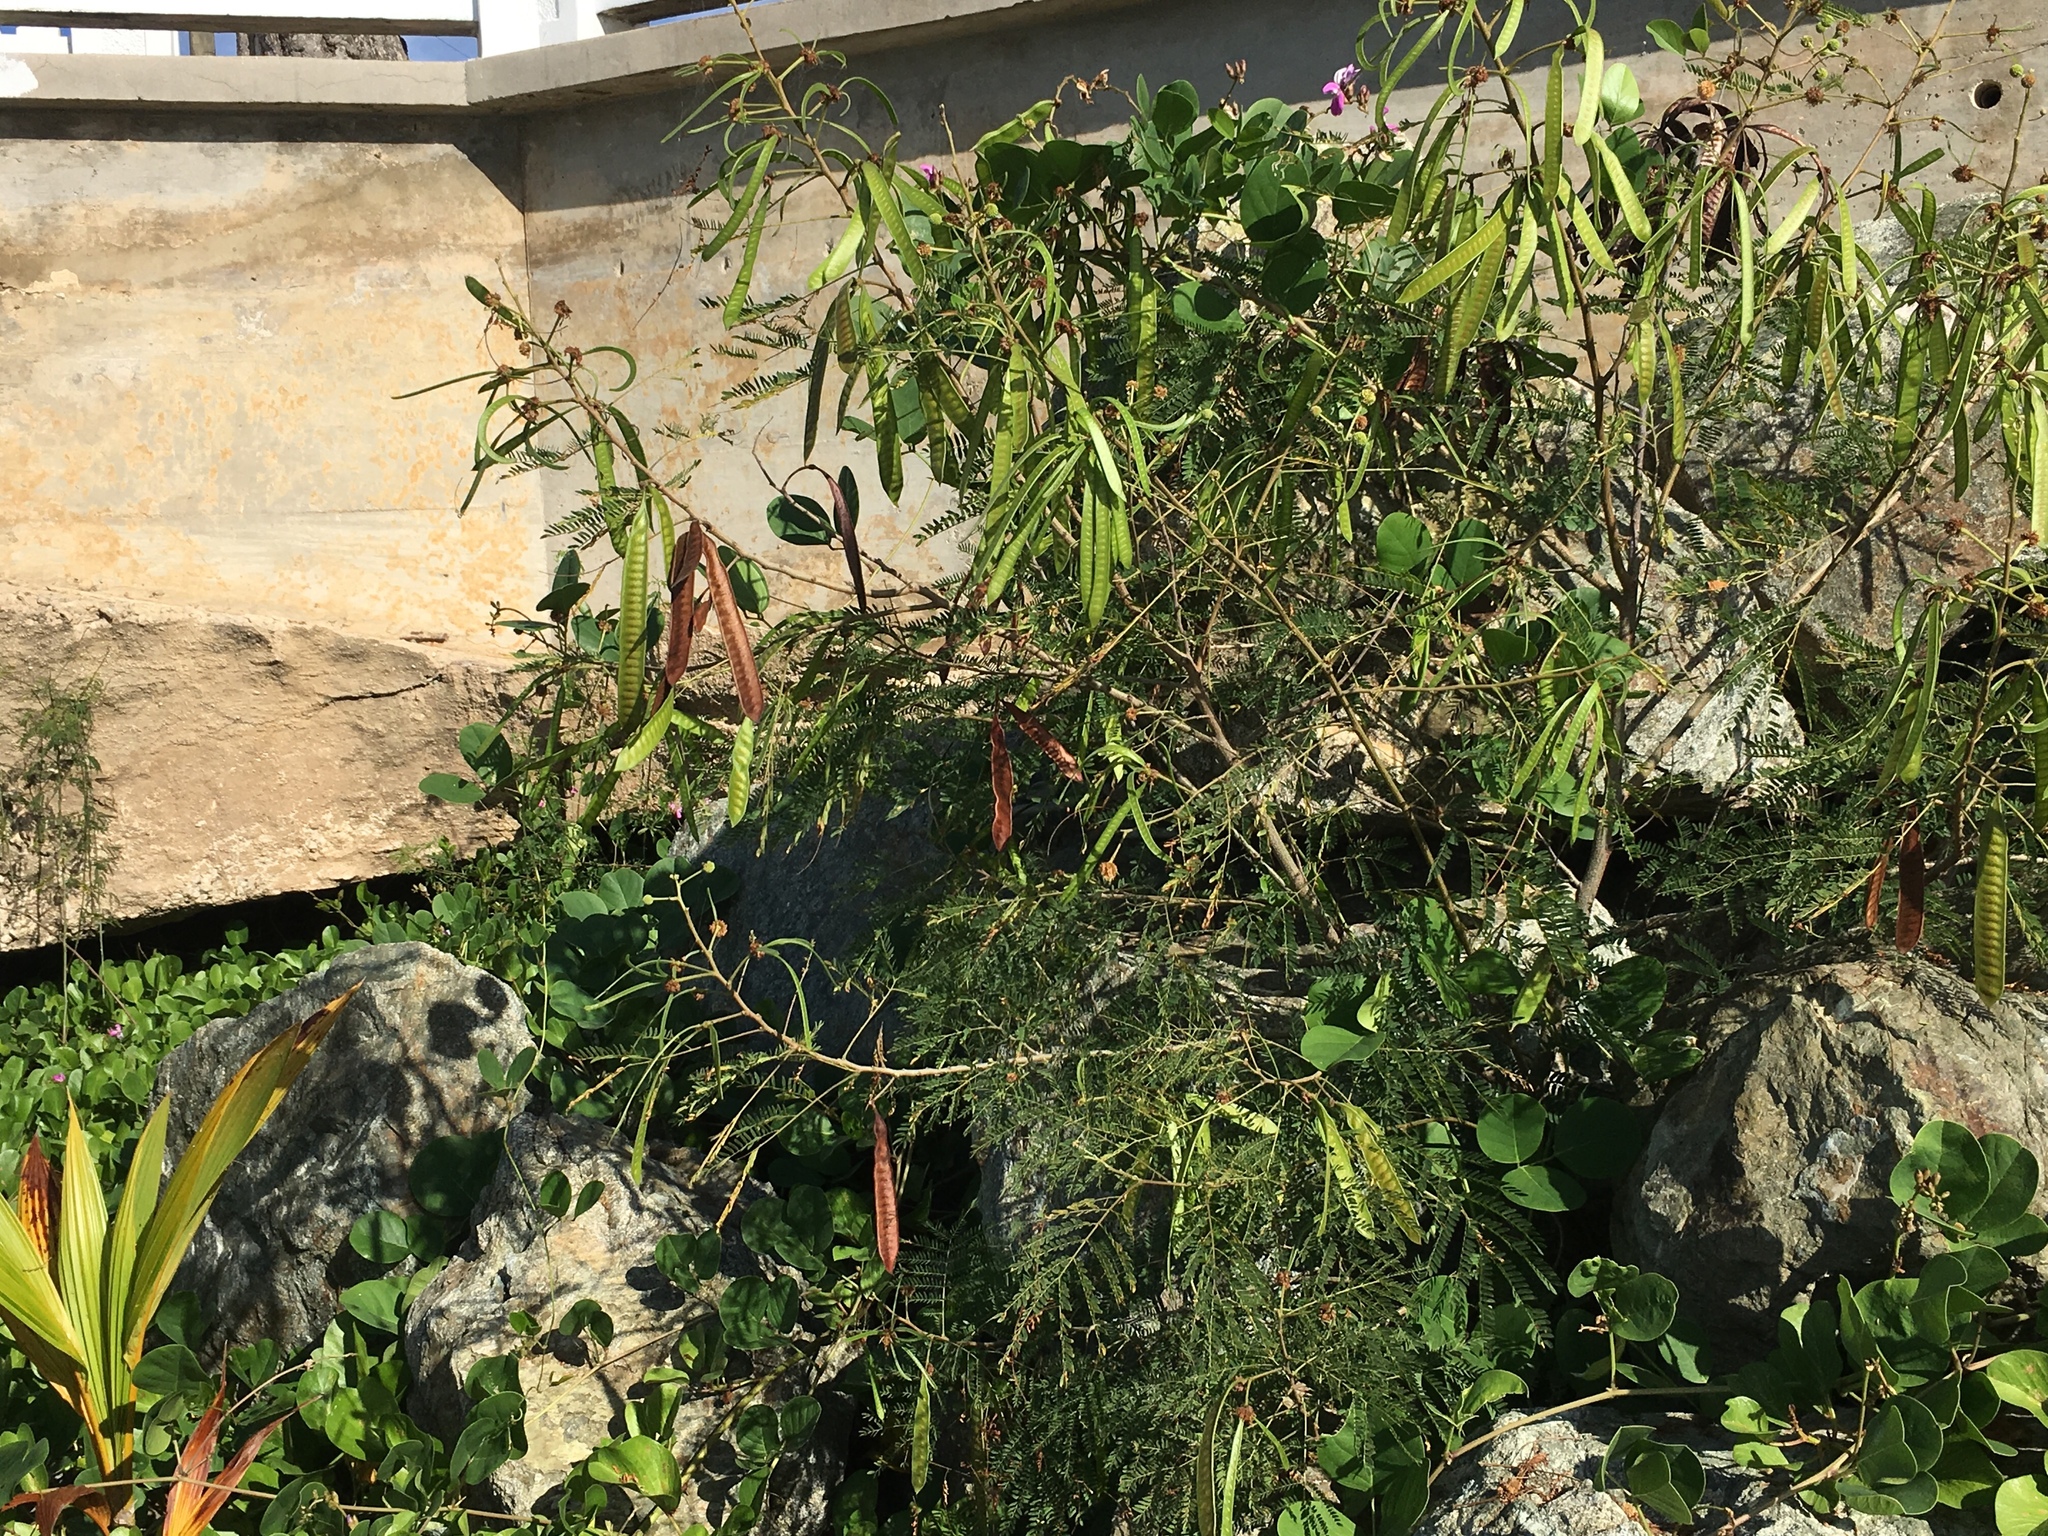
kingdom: Plantae
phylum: Tracheophyta
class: Magnoliopsida
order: Fabales
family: Fabaceae
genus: Leucaena
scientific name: Leucaena leucocephala
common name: White leadtree
